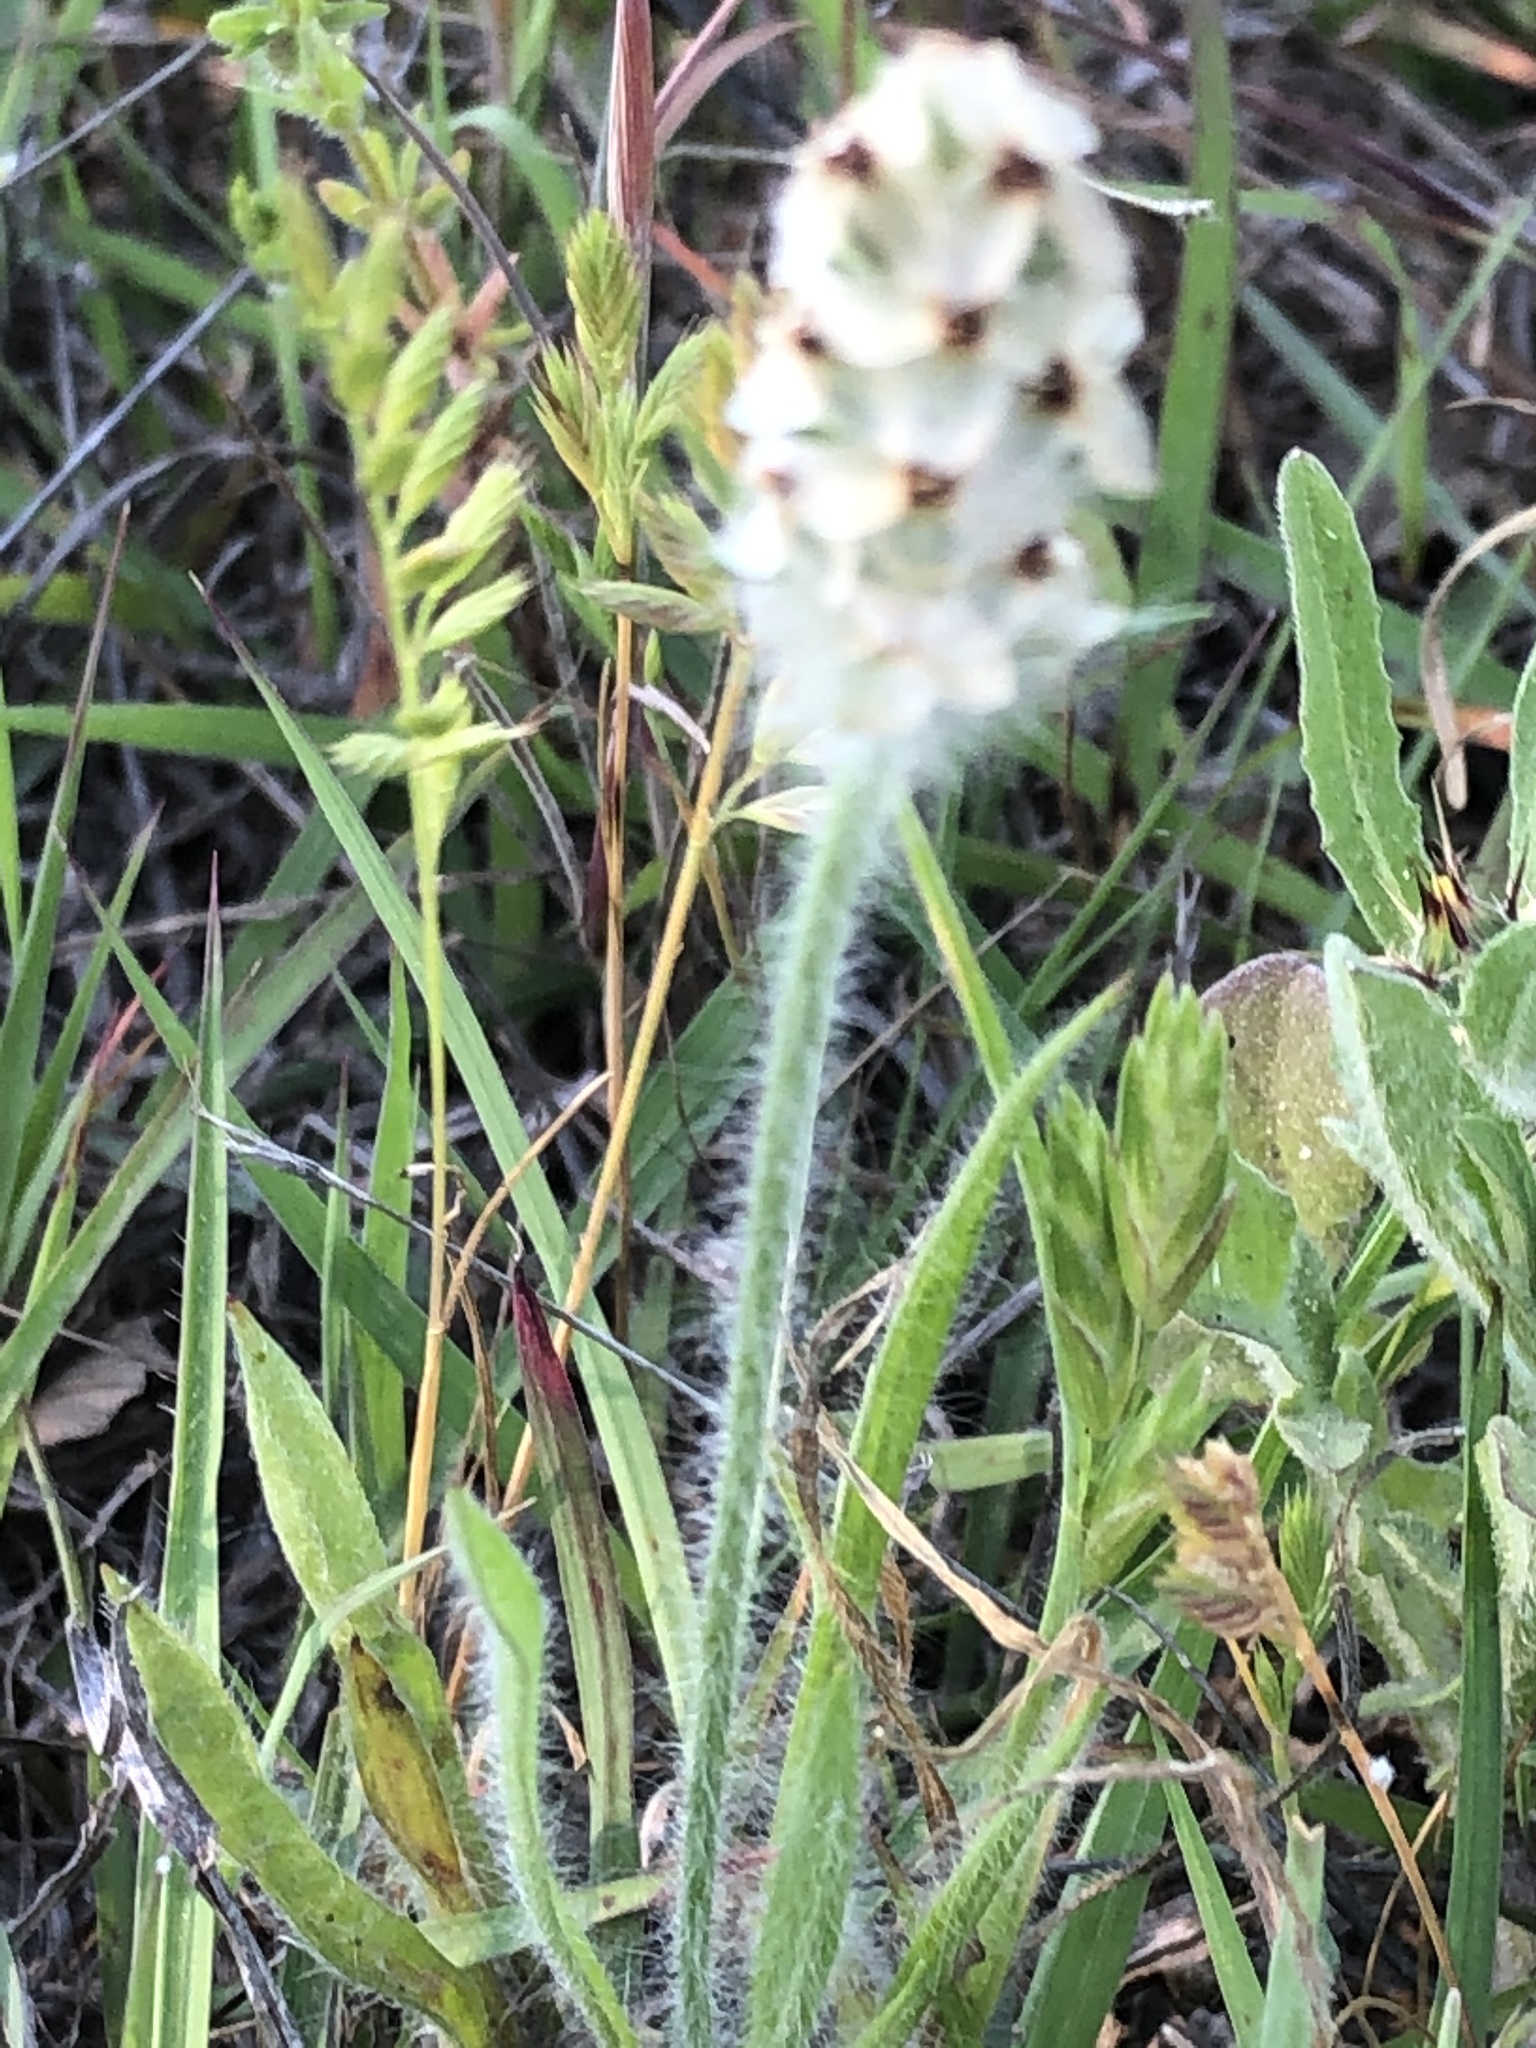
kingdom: Plantae
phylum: Tracheophyta
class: Magnoliopsida
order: Lamiales
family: Plantaginaceae
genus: Plantago
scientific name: Plantago helleri
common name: Heller's plantain
